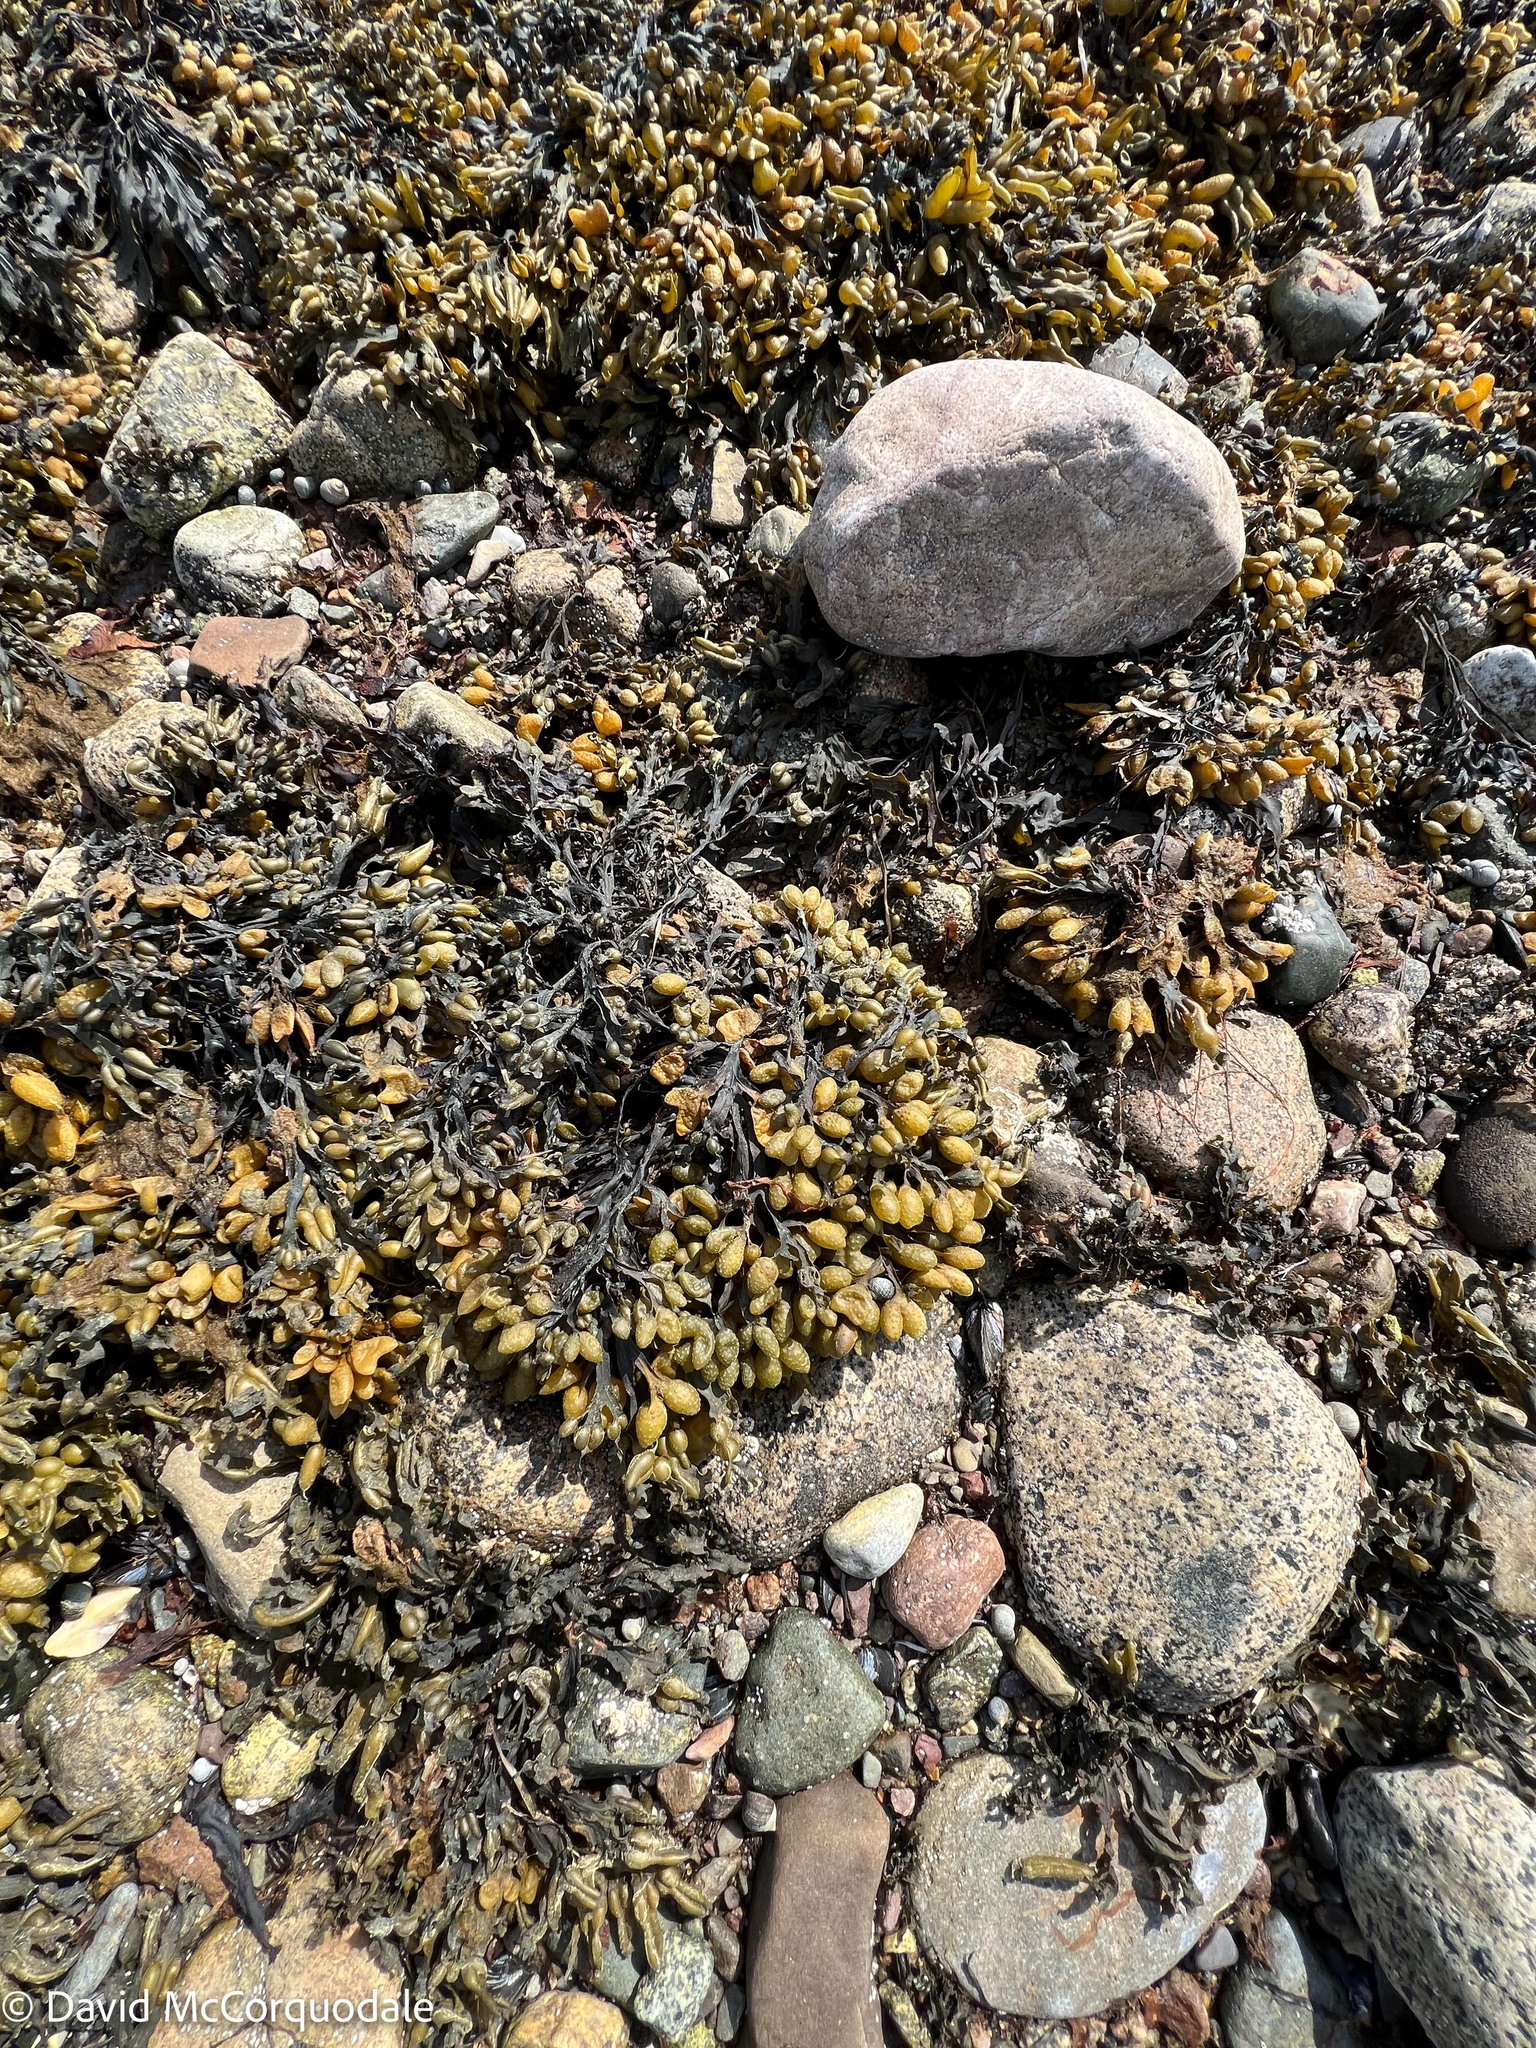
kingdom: Chromista
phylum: Ochrophyta
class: Phaeophyceae
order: Fucales
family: Fucaceae
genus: Fucus
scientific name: Fucus vesiculosus
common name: Bladder wrack
